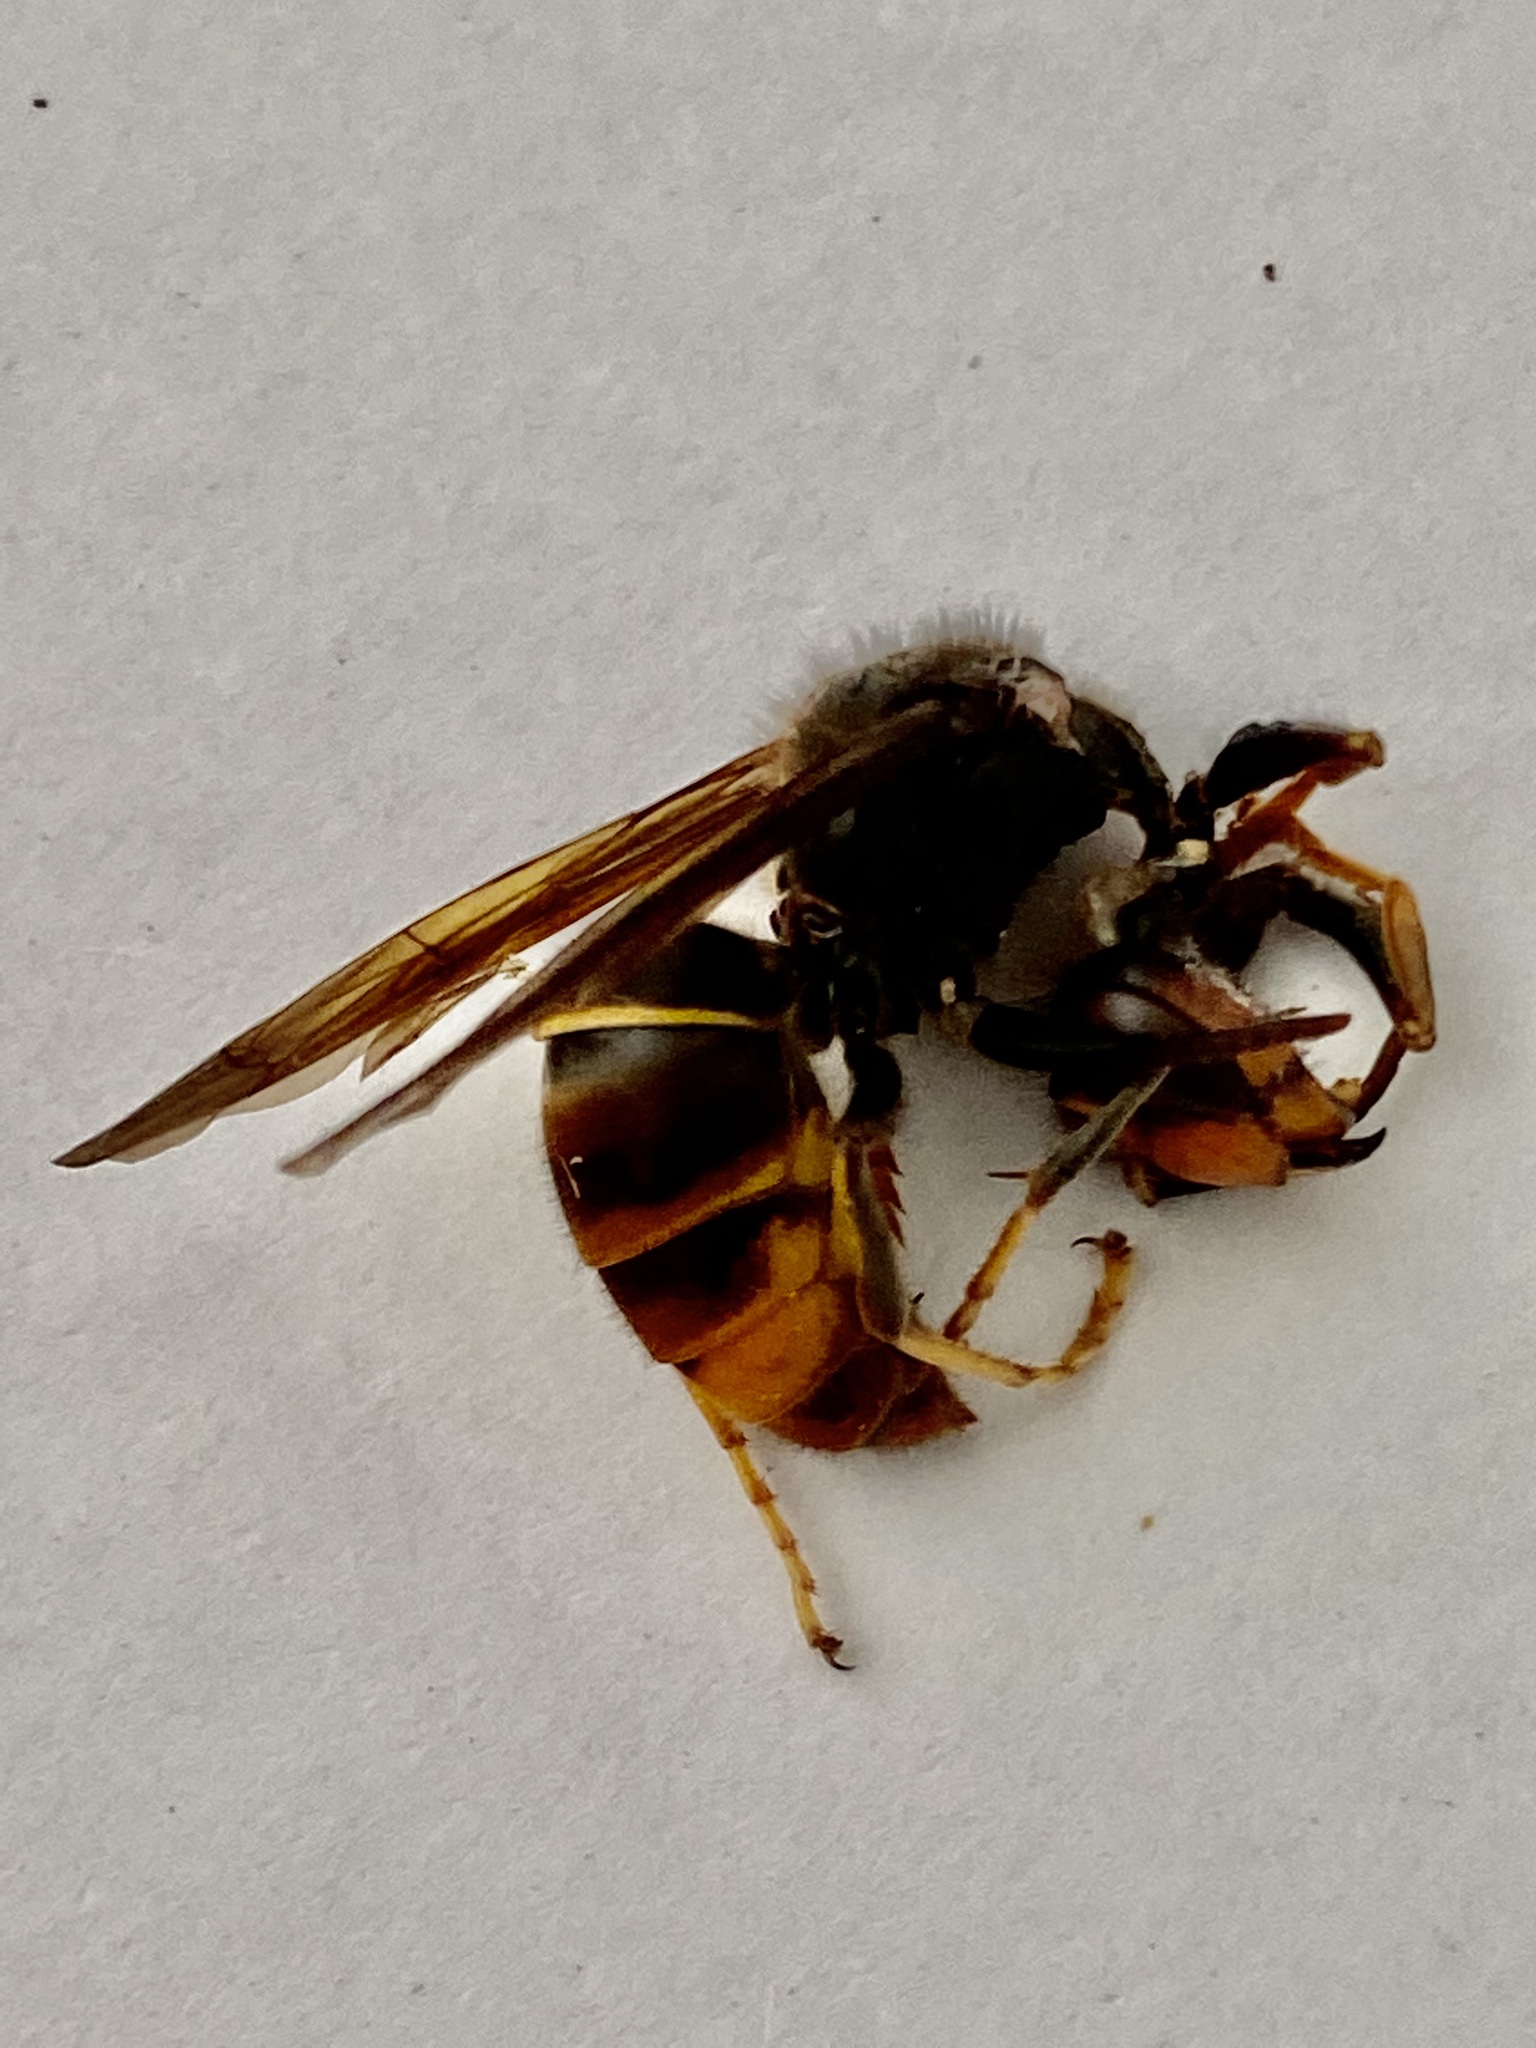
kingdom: Animalia
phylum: Arthropoda
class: Insecta
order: Hymenoptera
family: Vespidae
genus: Vespa
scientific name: Vespa velutina
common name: Asian hornet
